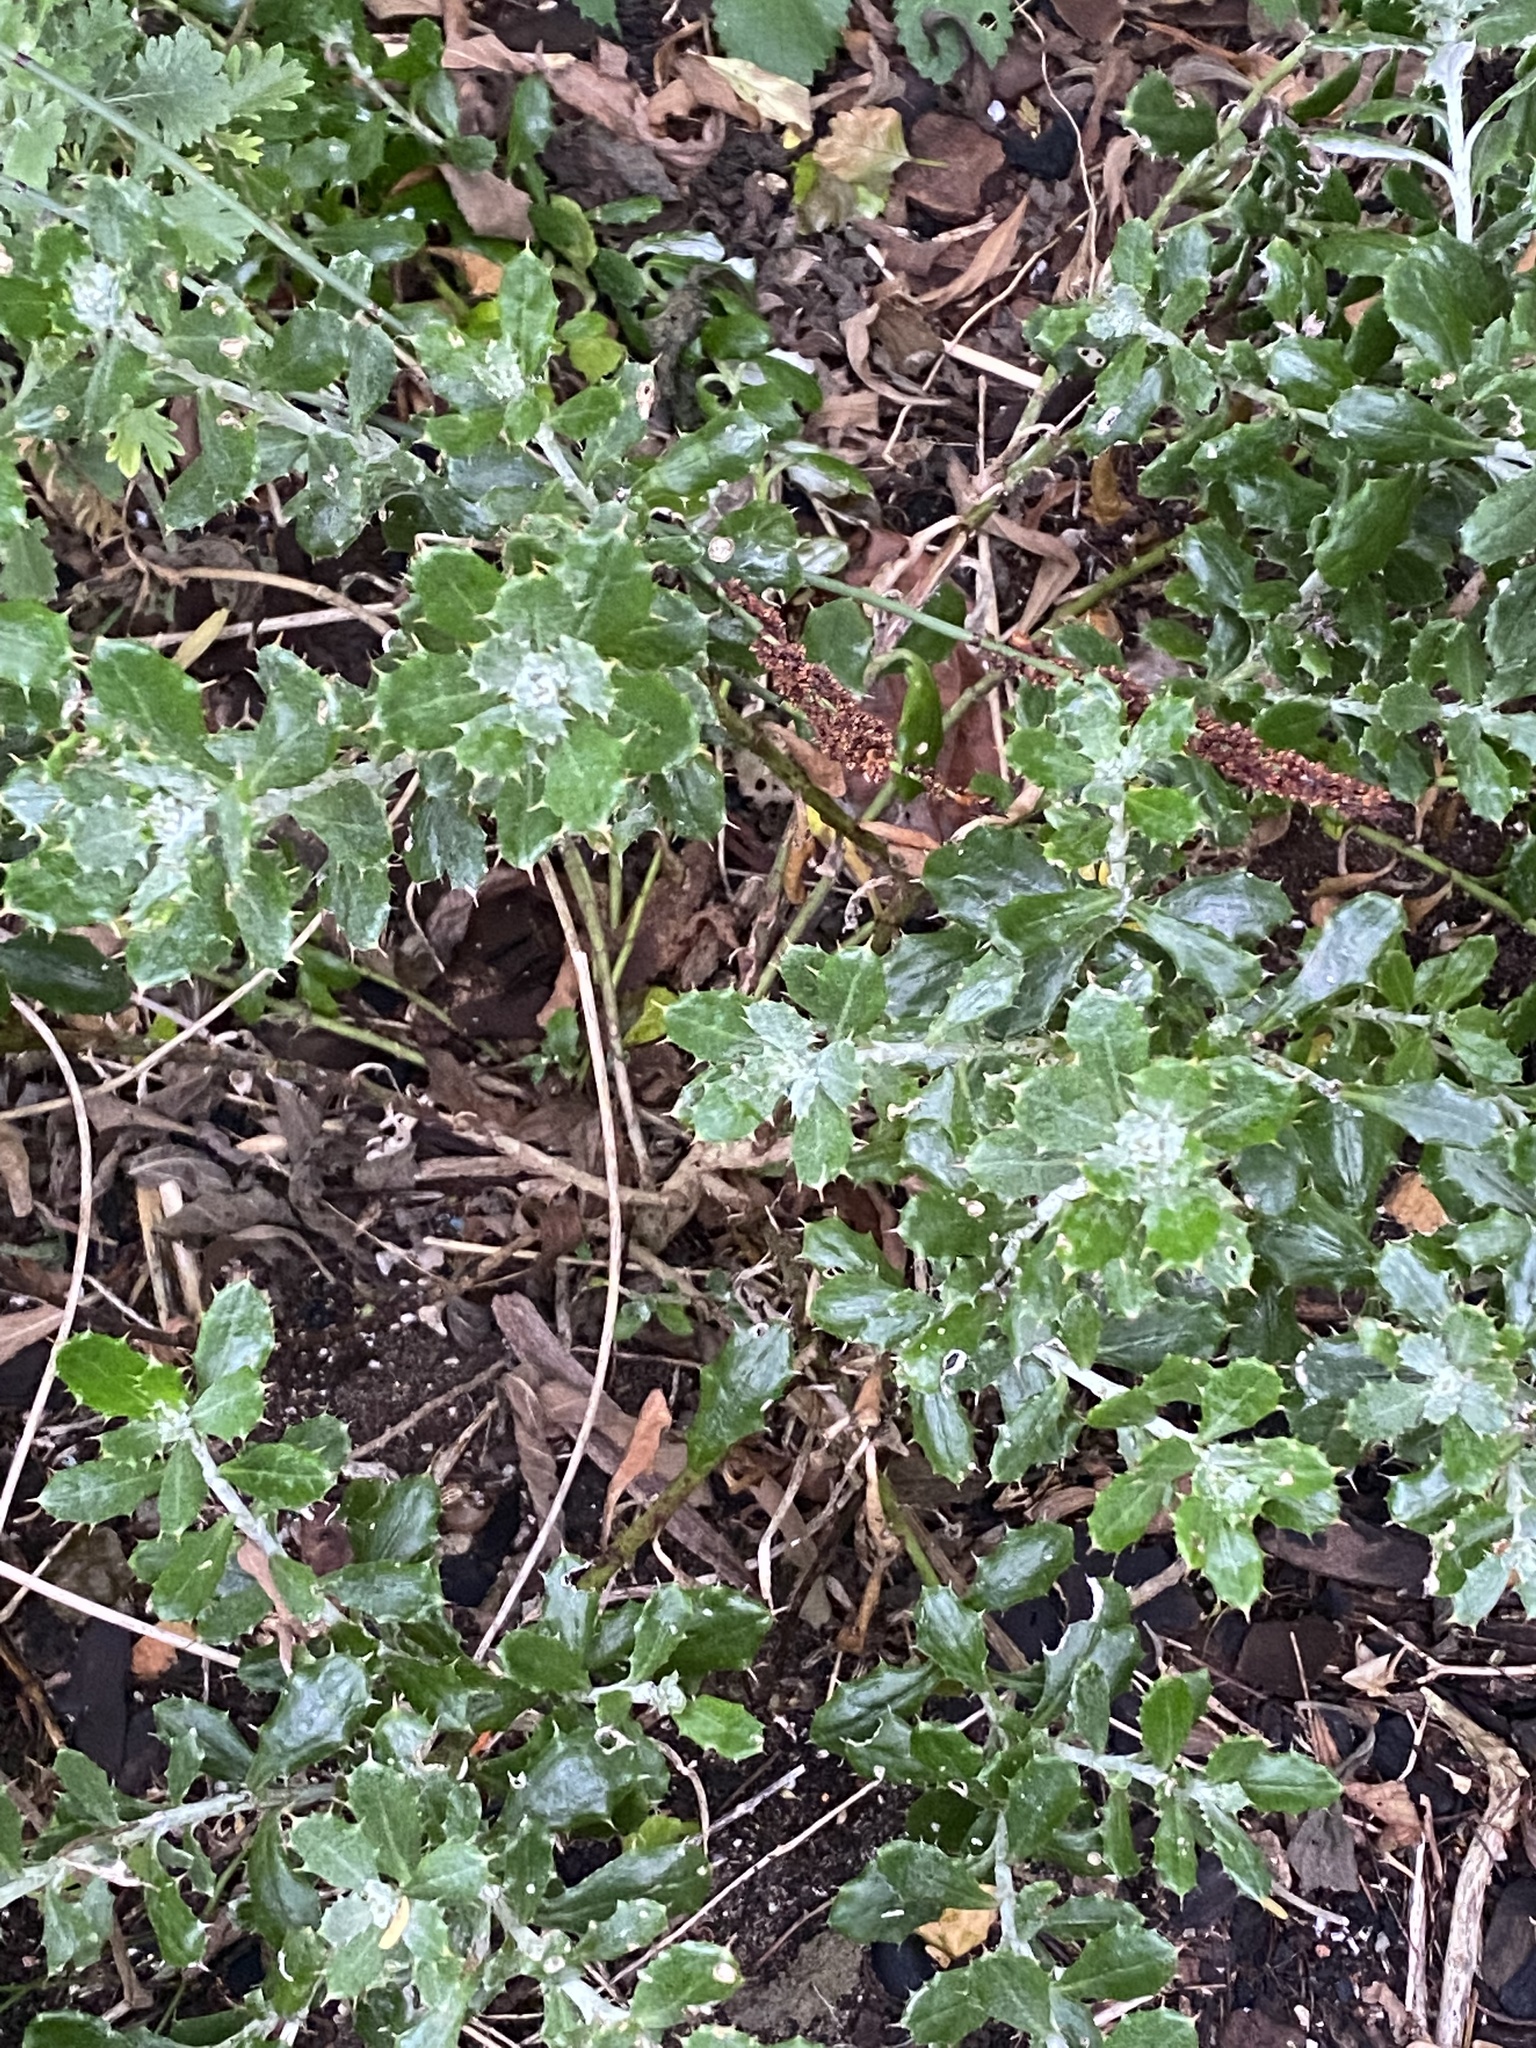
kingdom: Plantae
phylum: Tracheophyta
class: Magnoliopsida
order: Asterales
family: Asteraceae
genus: Berkheya
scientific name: Berkheya coriacea
